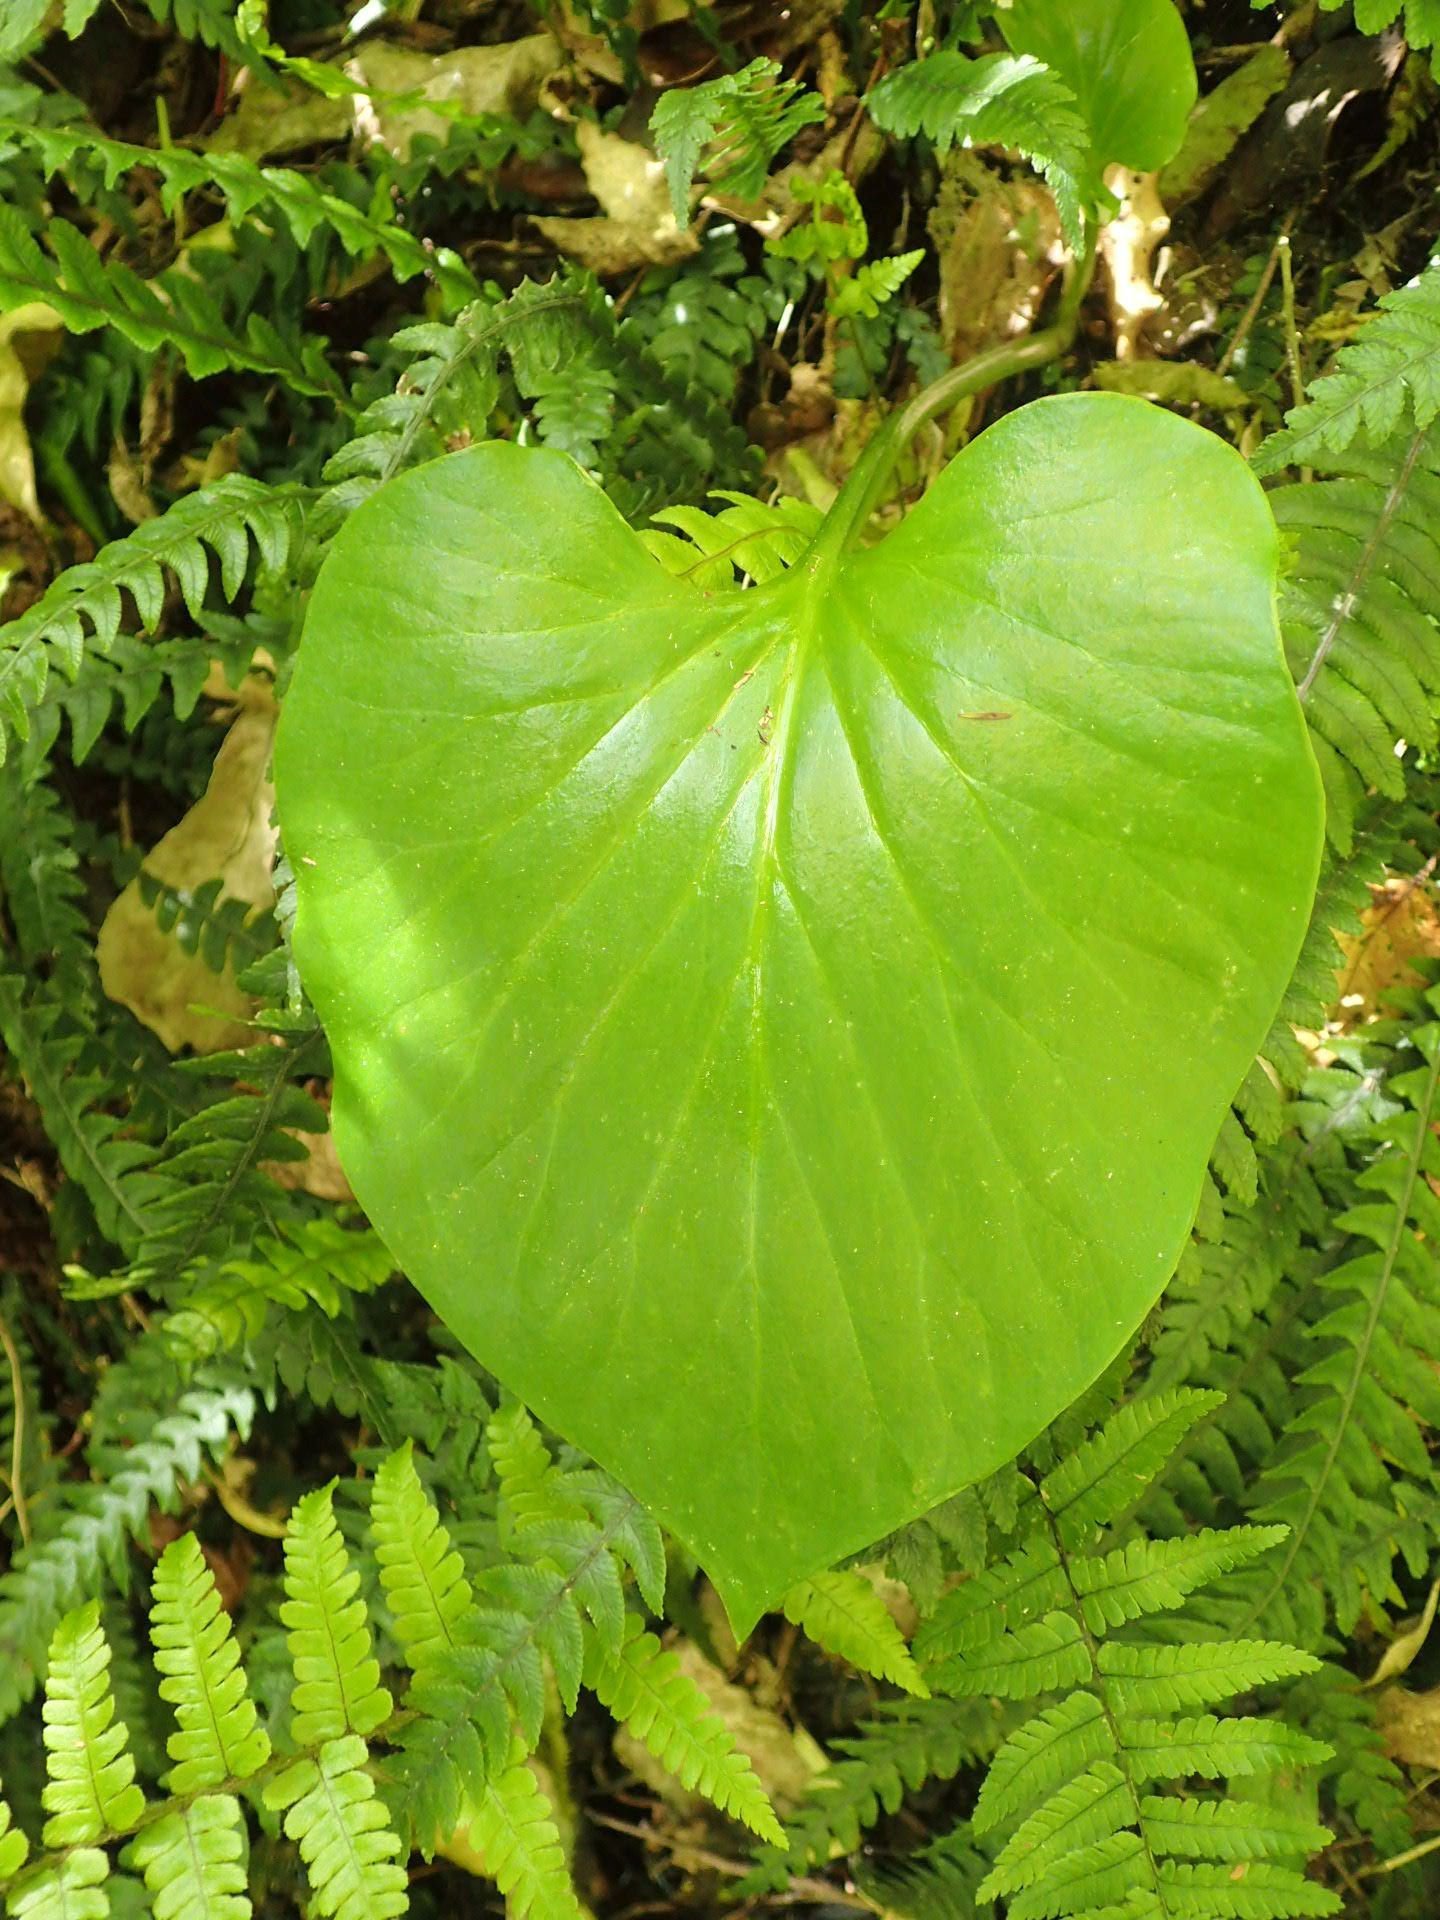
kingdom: Plantae
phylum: Tracheophyta
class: Liliopsida
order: Liliales
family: Liliaceae
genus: Cardiocrinum
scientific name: Cardiocrinum giganteum
